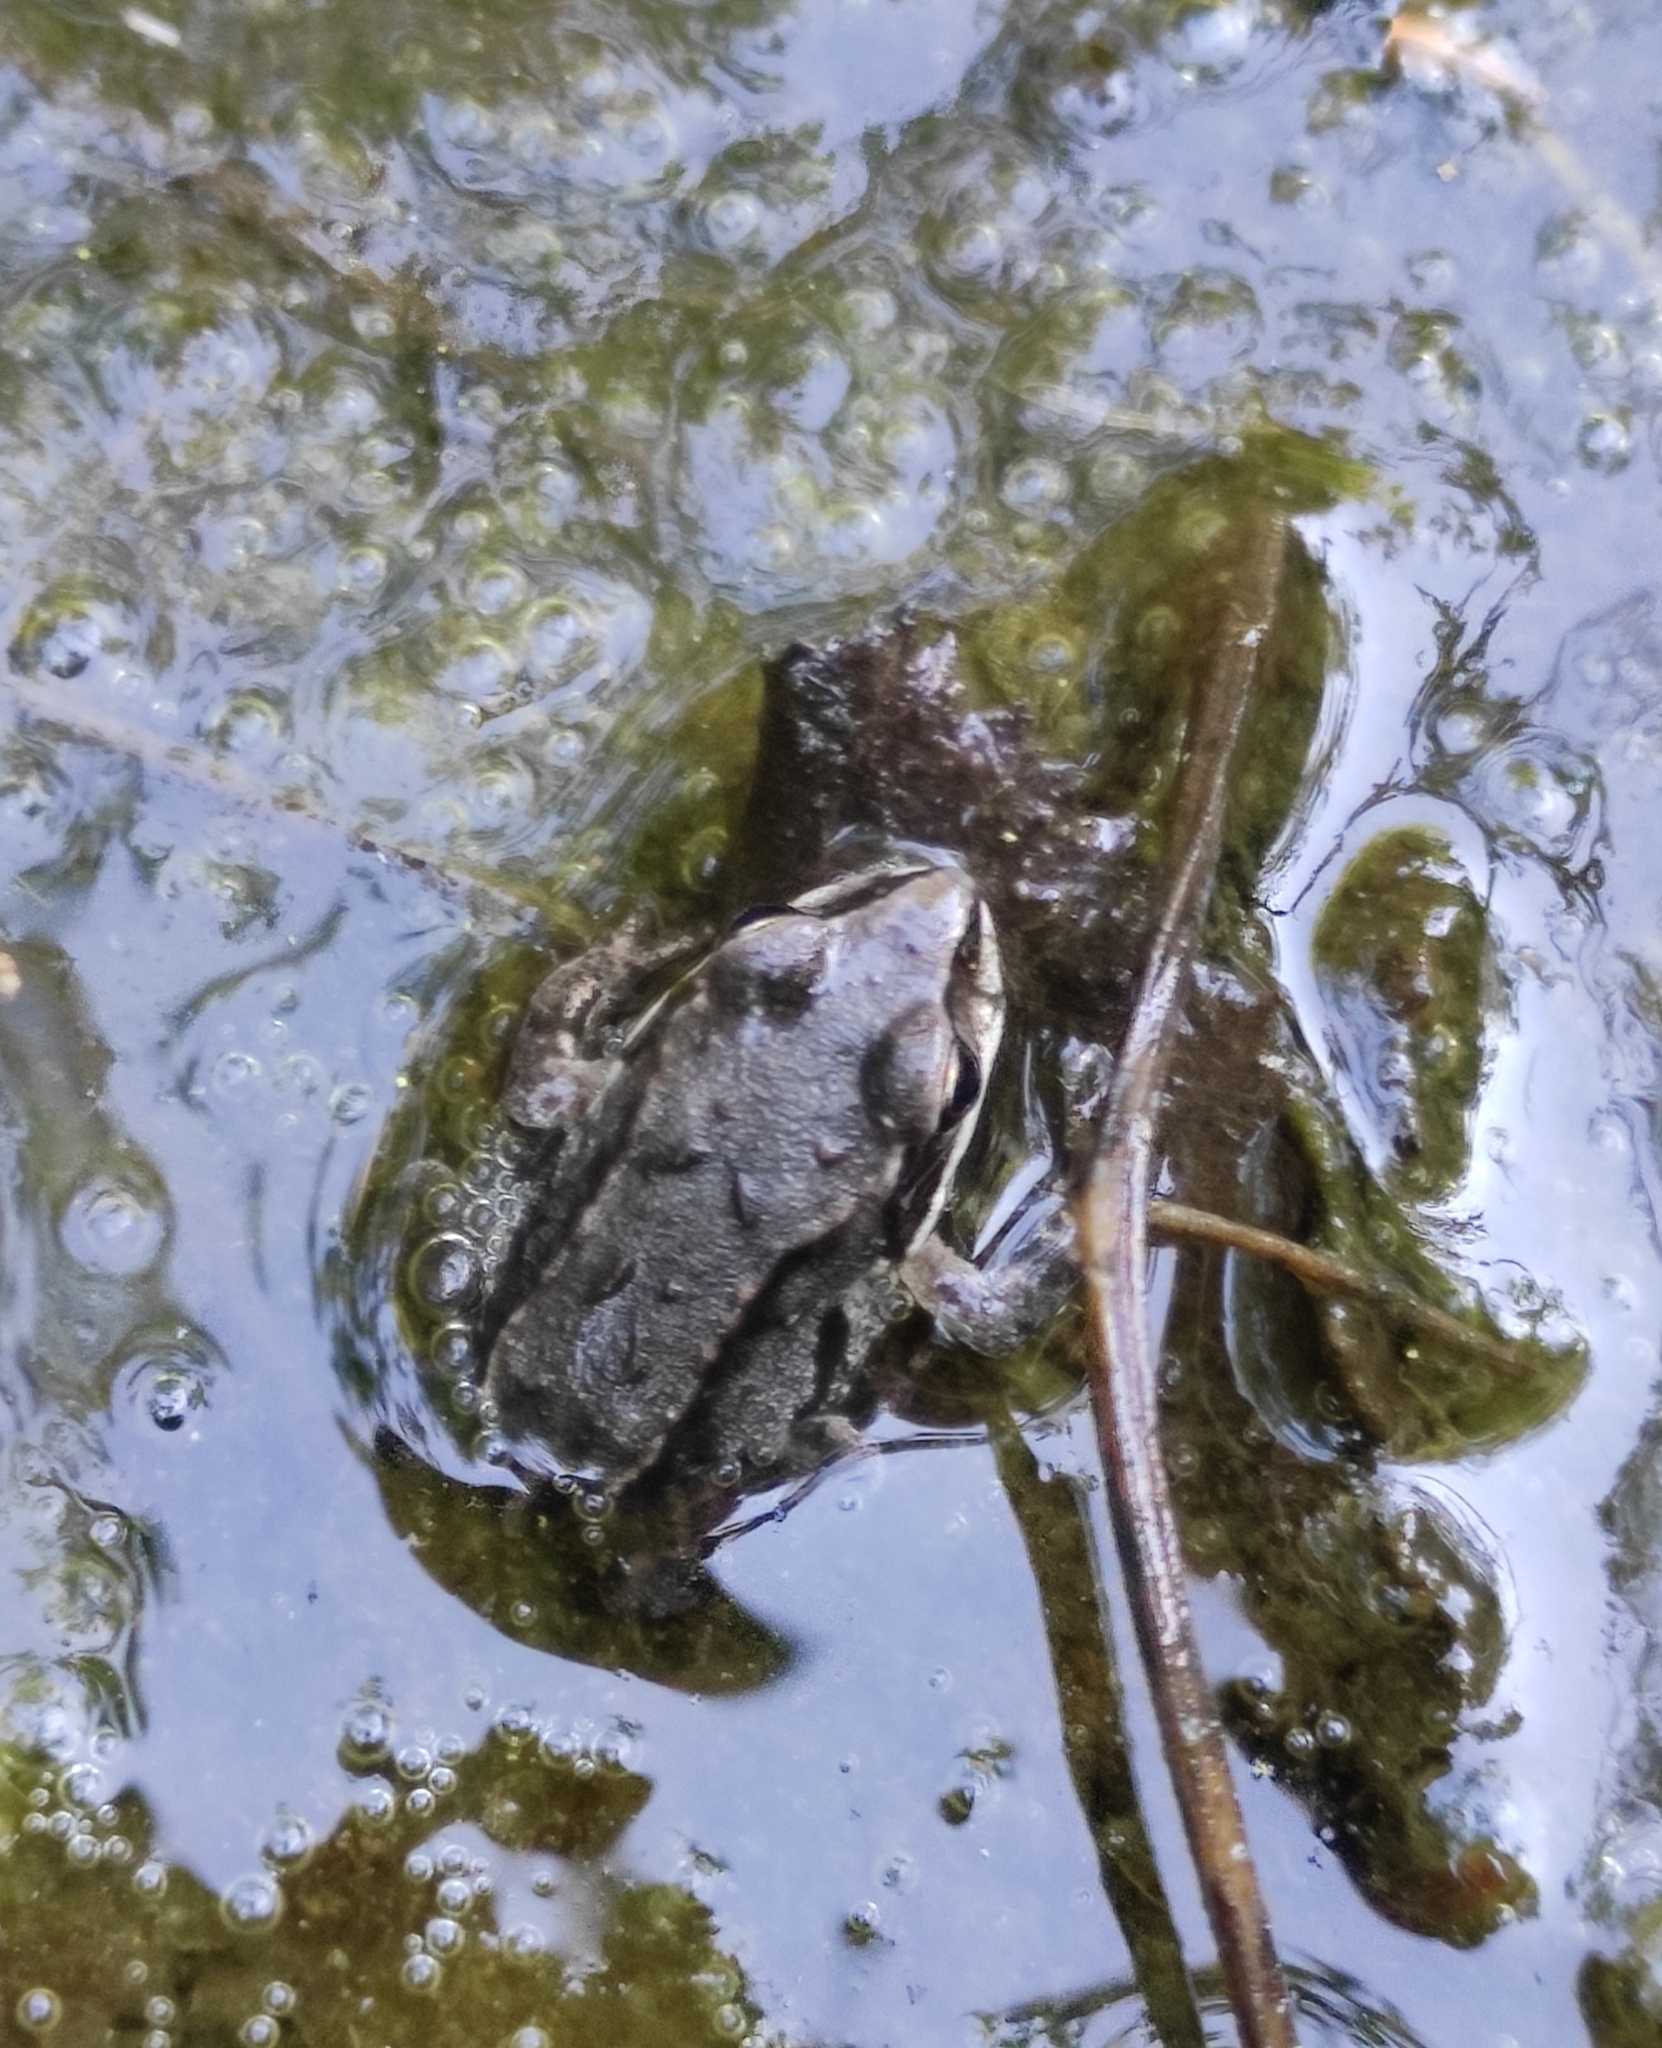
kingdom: Animalia
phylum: Chordata
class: Amphibia
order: Anura
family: Ranidae
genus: Rana
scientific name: Rana arvalis
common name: Moor frog
